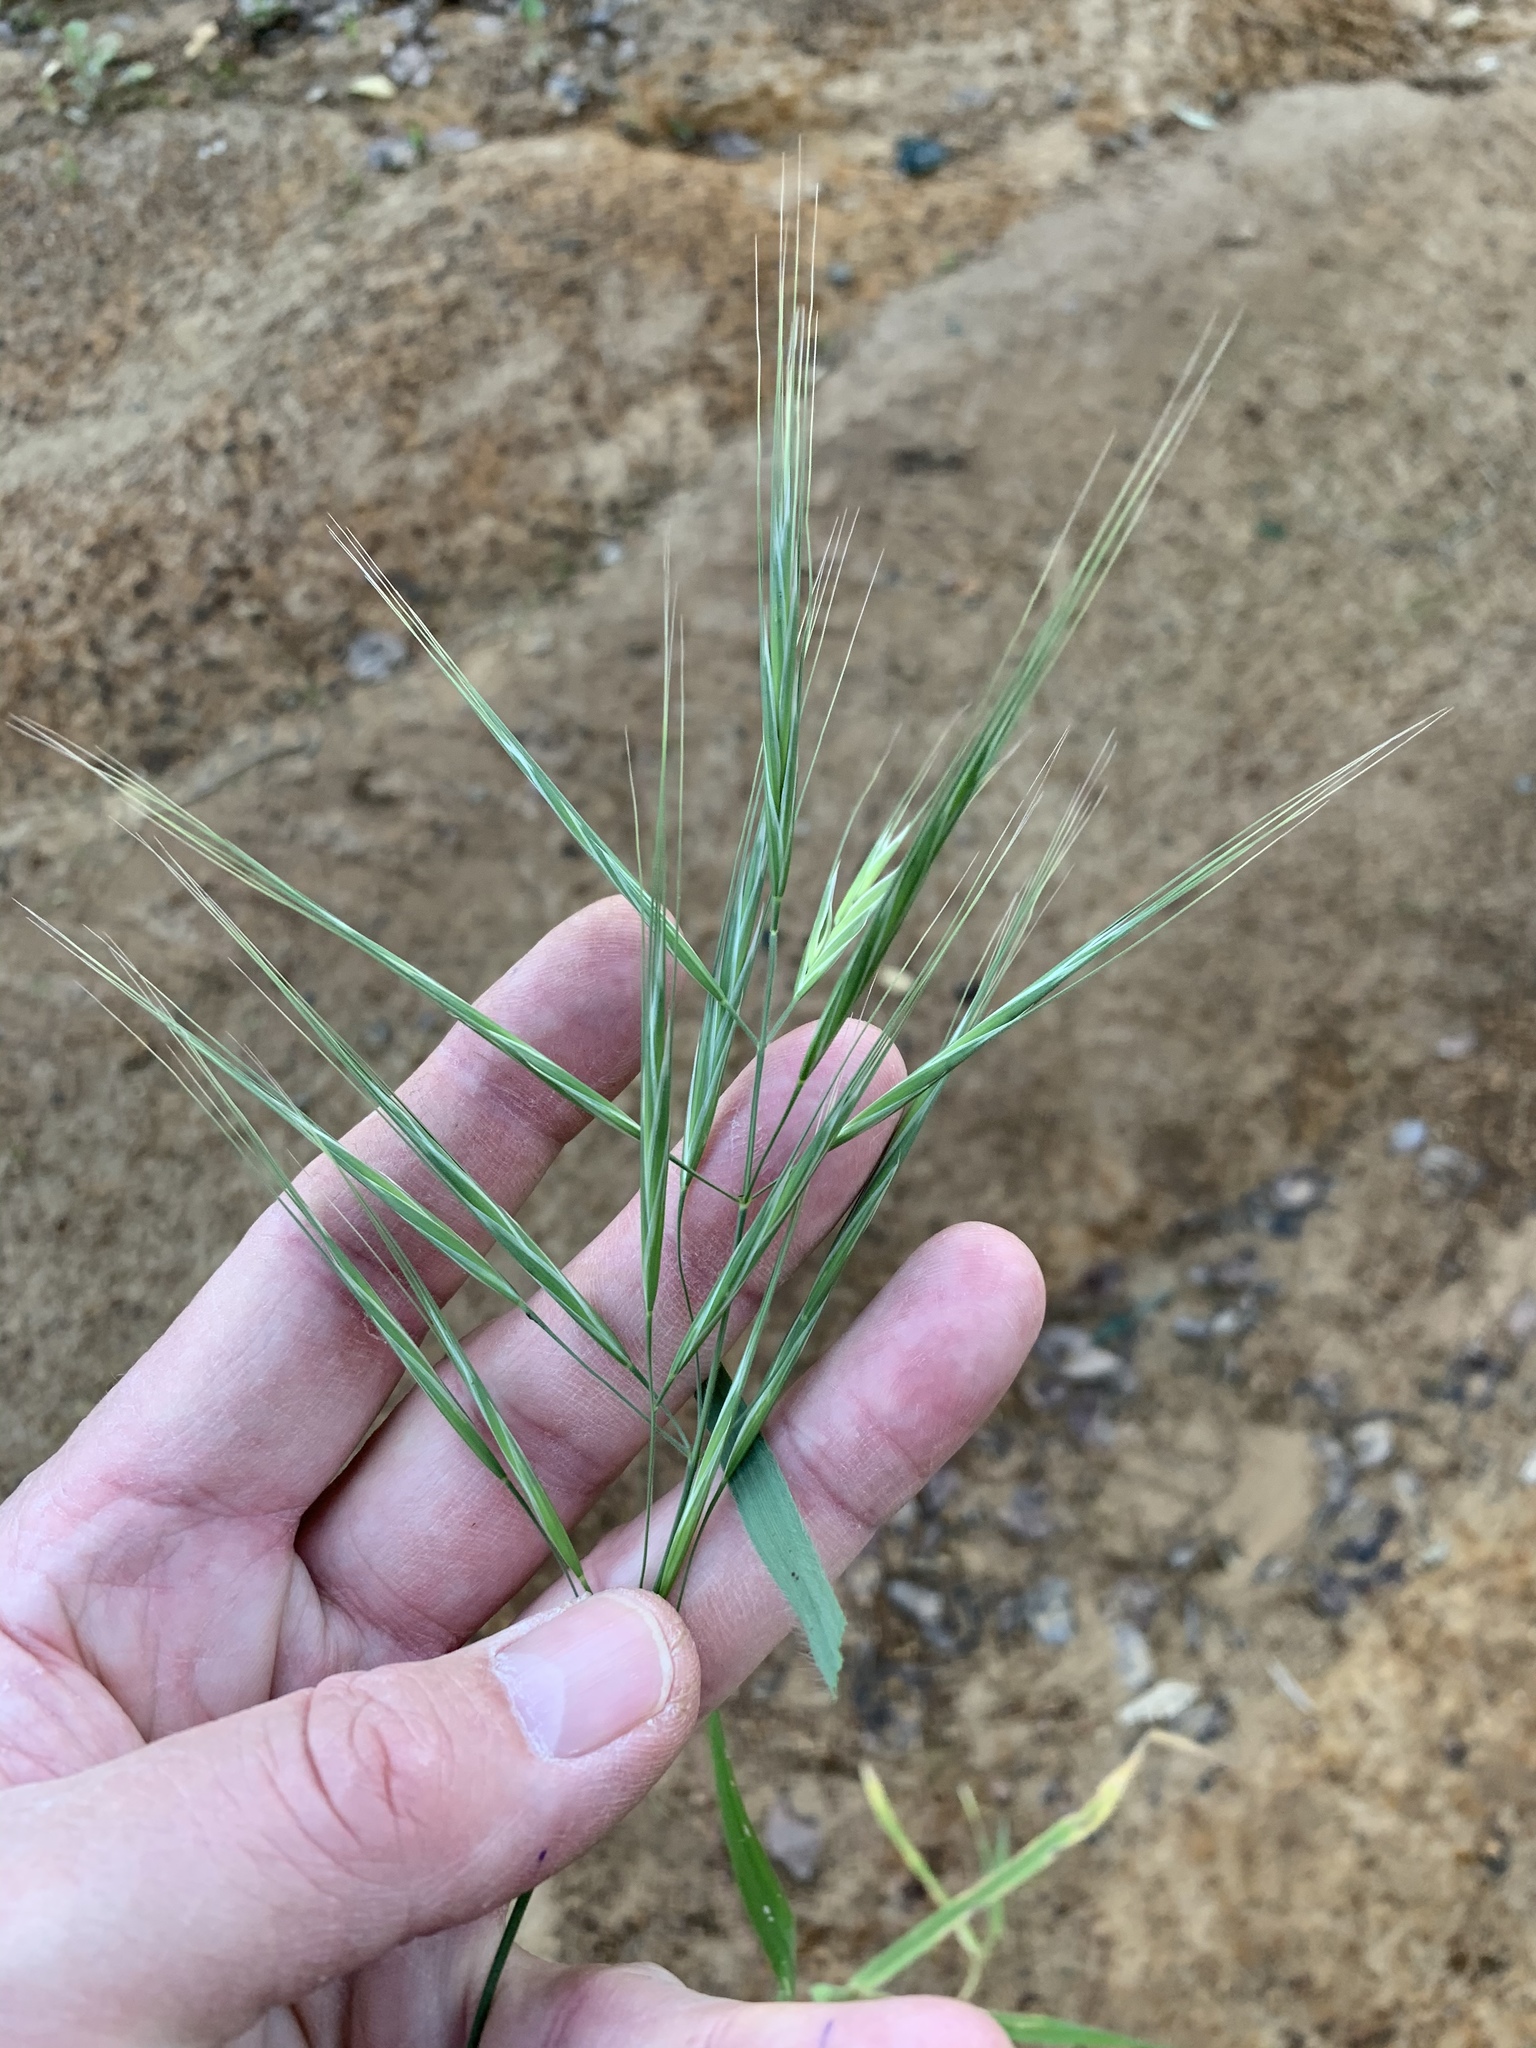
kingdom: Plantae
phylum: Tracheophyta
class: Liliopsida
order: Poales
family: Poaceae
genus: Bromus
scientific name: Bromus diandrus
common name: Ripgut brome
